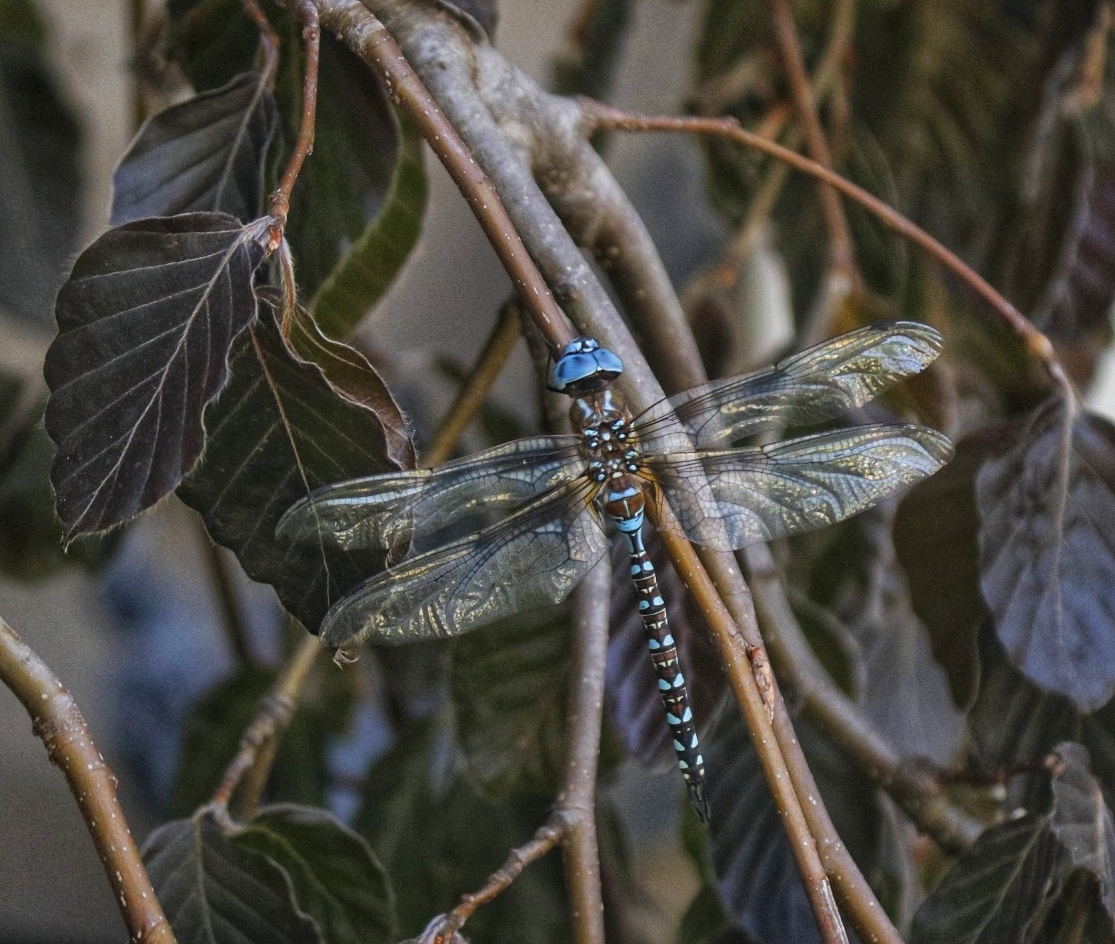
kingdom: Animalia
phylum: Arthropoda
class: Insecta
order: Odonata
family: Aeshnidae
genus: Rhionaeschna
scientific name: Rhionaeschna multicolor
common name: Blue-eyed darner
